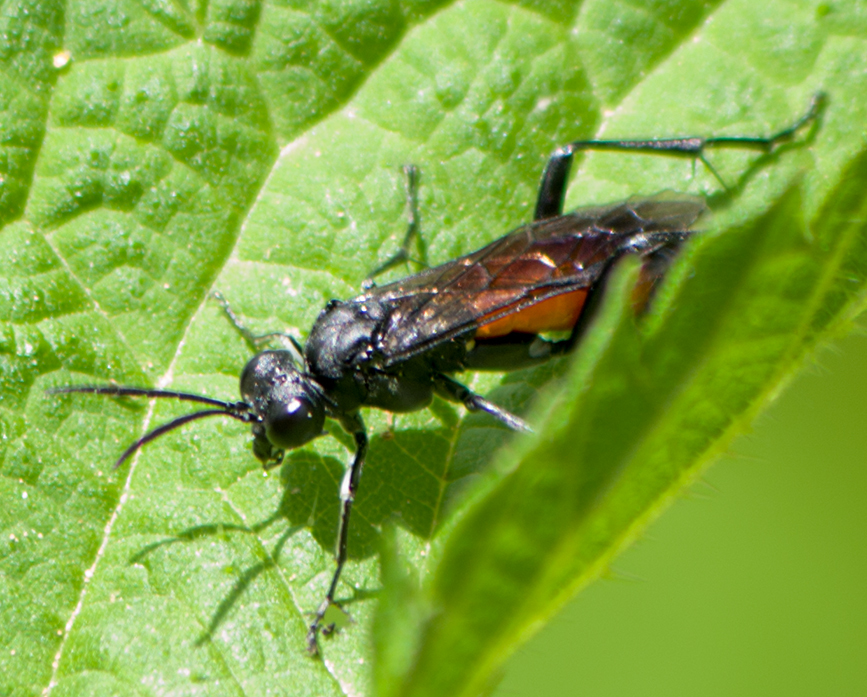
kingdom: Animalia
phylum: Arthropoda
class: Insecta
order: Hymenoptera
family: Tenthredinidae
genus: Macrophya
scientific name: Macrophya annulata
